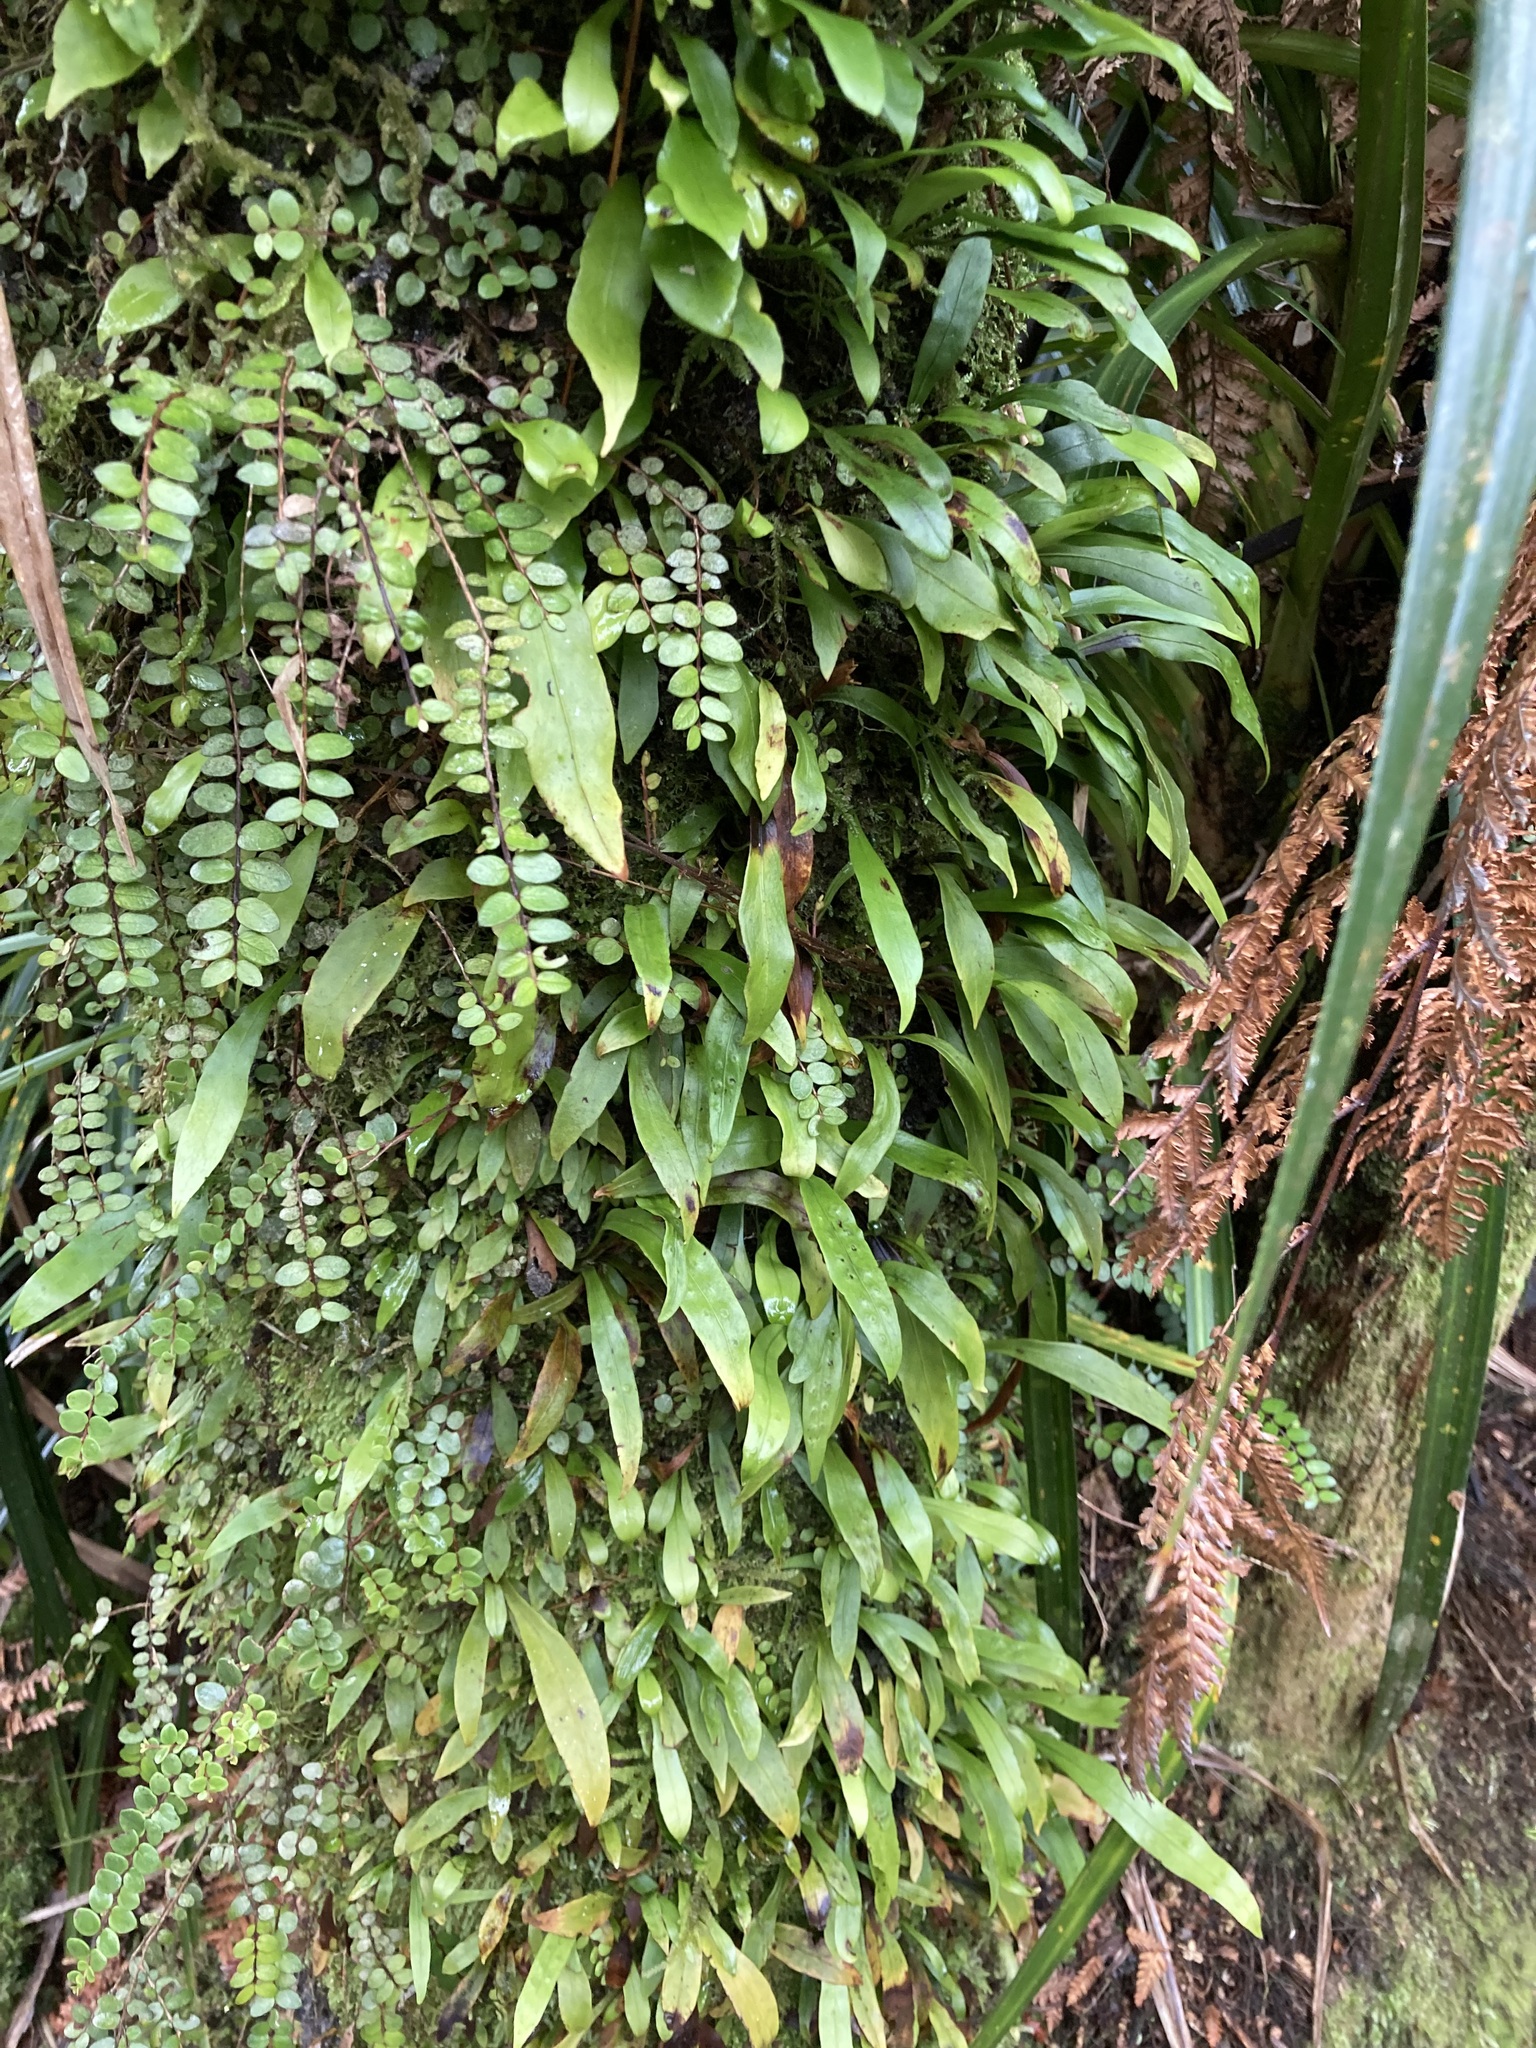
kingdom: Plantae
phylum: Tracheophyta
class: Polypodiopsida
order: Polypodiales
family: Polypodiaceae
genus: Loxogramme
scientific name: Loxogramme dictyopteris
